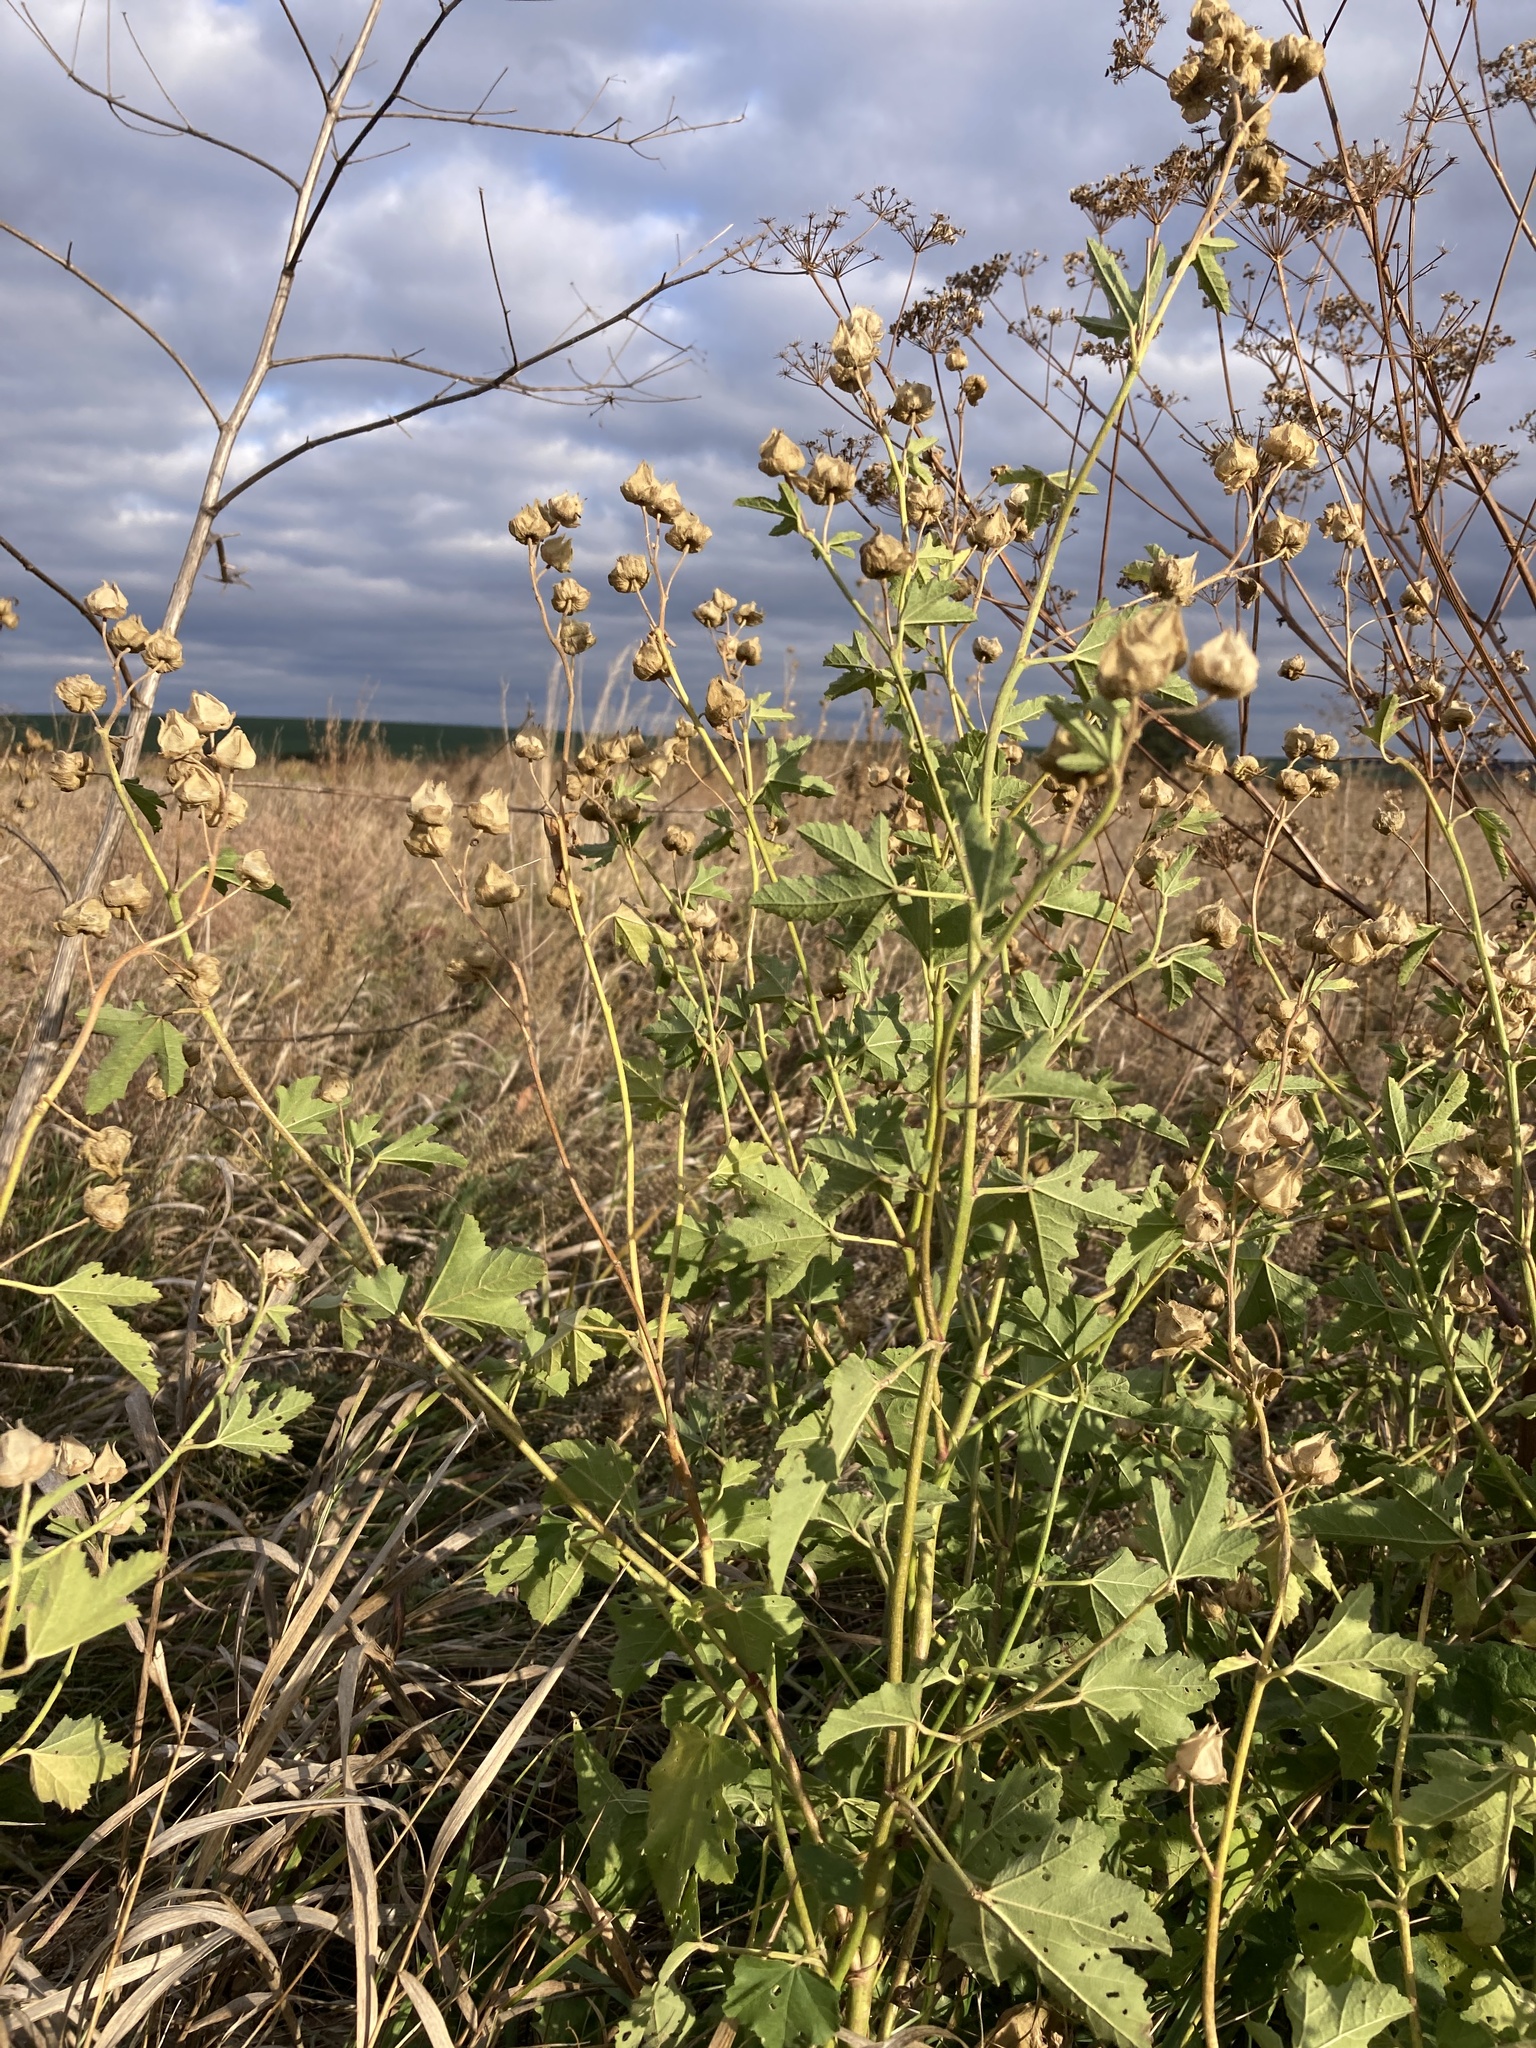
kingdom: Plantae
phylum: Tracheophyta
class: Magnoliopsida
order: Malvales
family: Malvaceae
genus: Malva
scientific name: Malva thuringiaca
